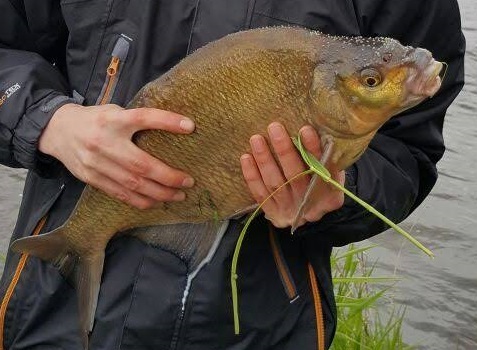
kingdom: Animalia
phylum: Chordata
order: Cypriniformes
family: Cyprinidae
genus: Abramis
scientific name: Abramis brama
